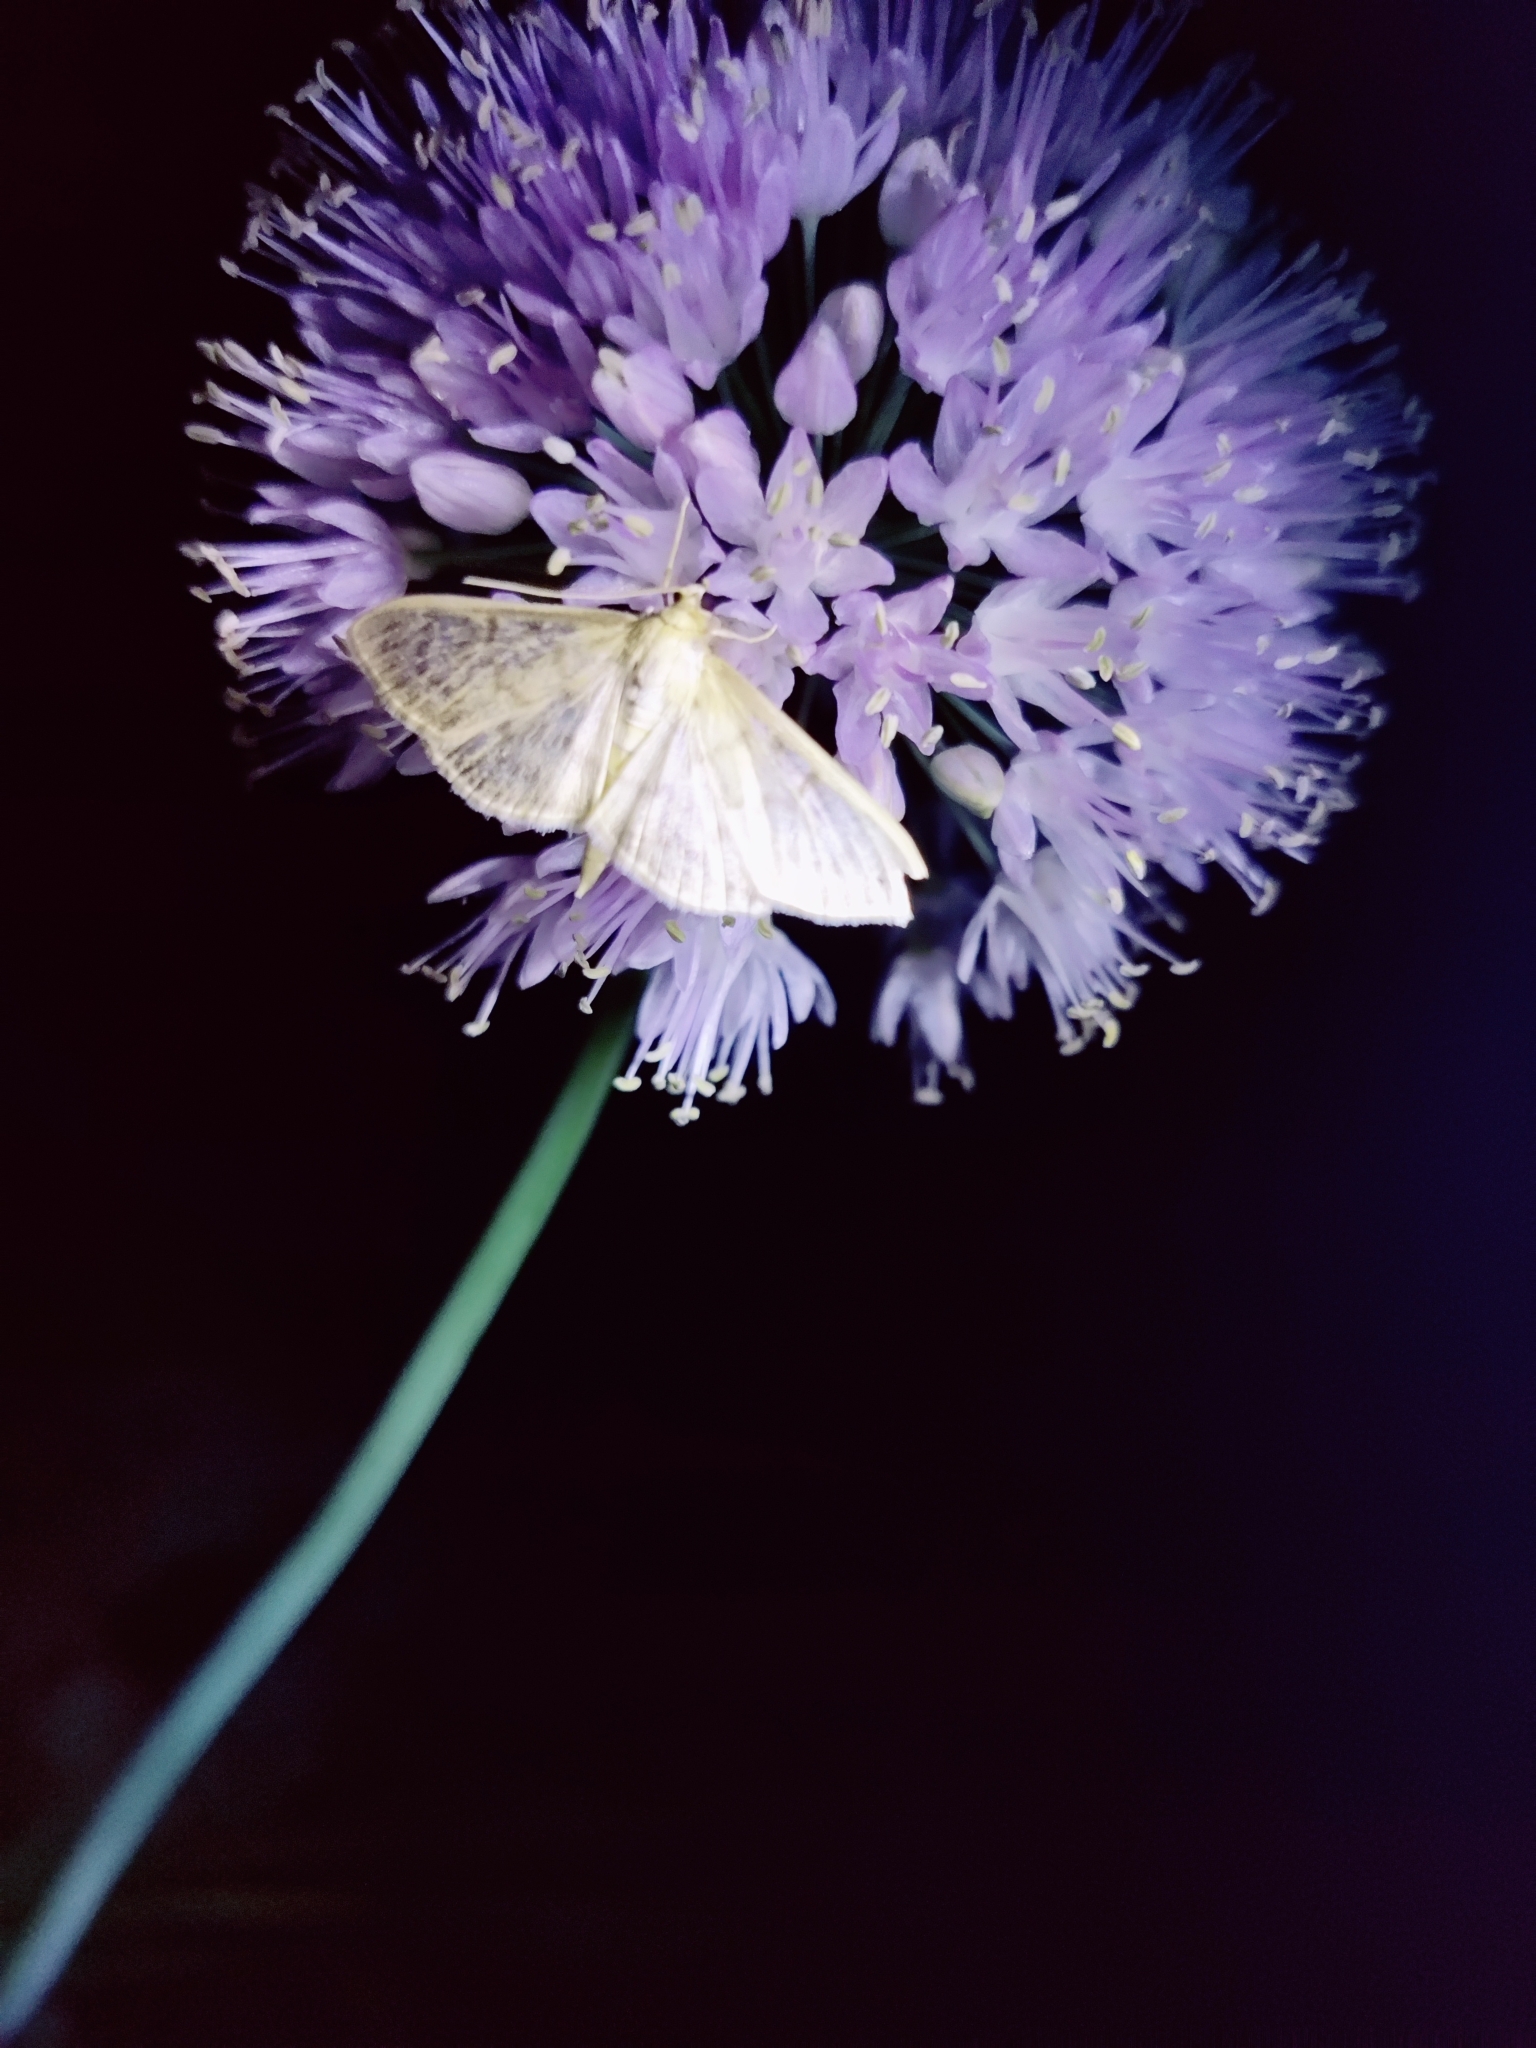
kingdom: Animalia
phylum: Arthropoda
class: Insecta
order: Lepidoptera
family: Crambidae
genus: Patania
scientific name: Patania ruralis
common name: Mother of pearl
